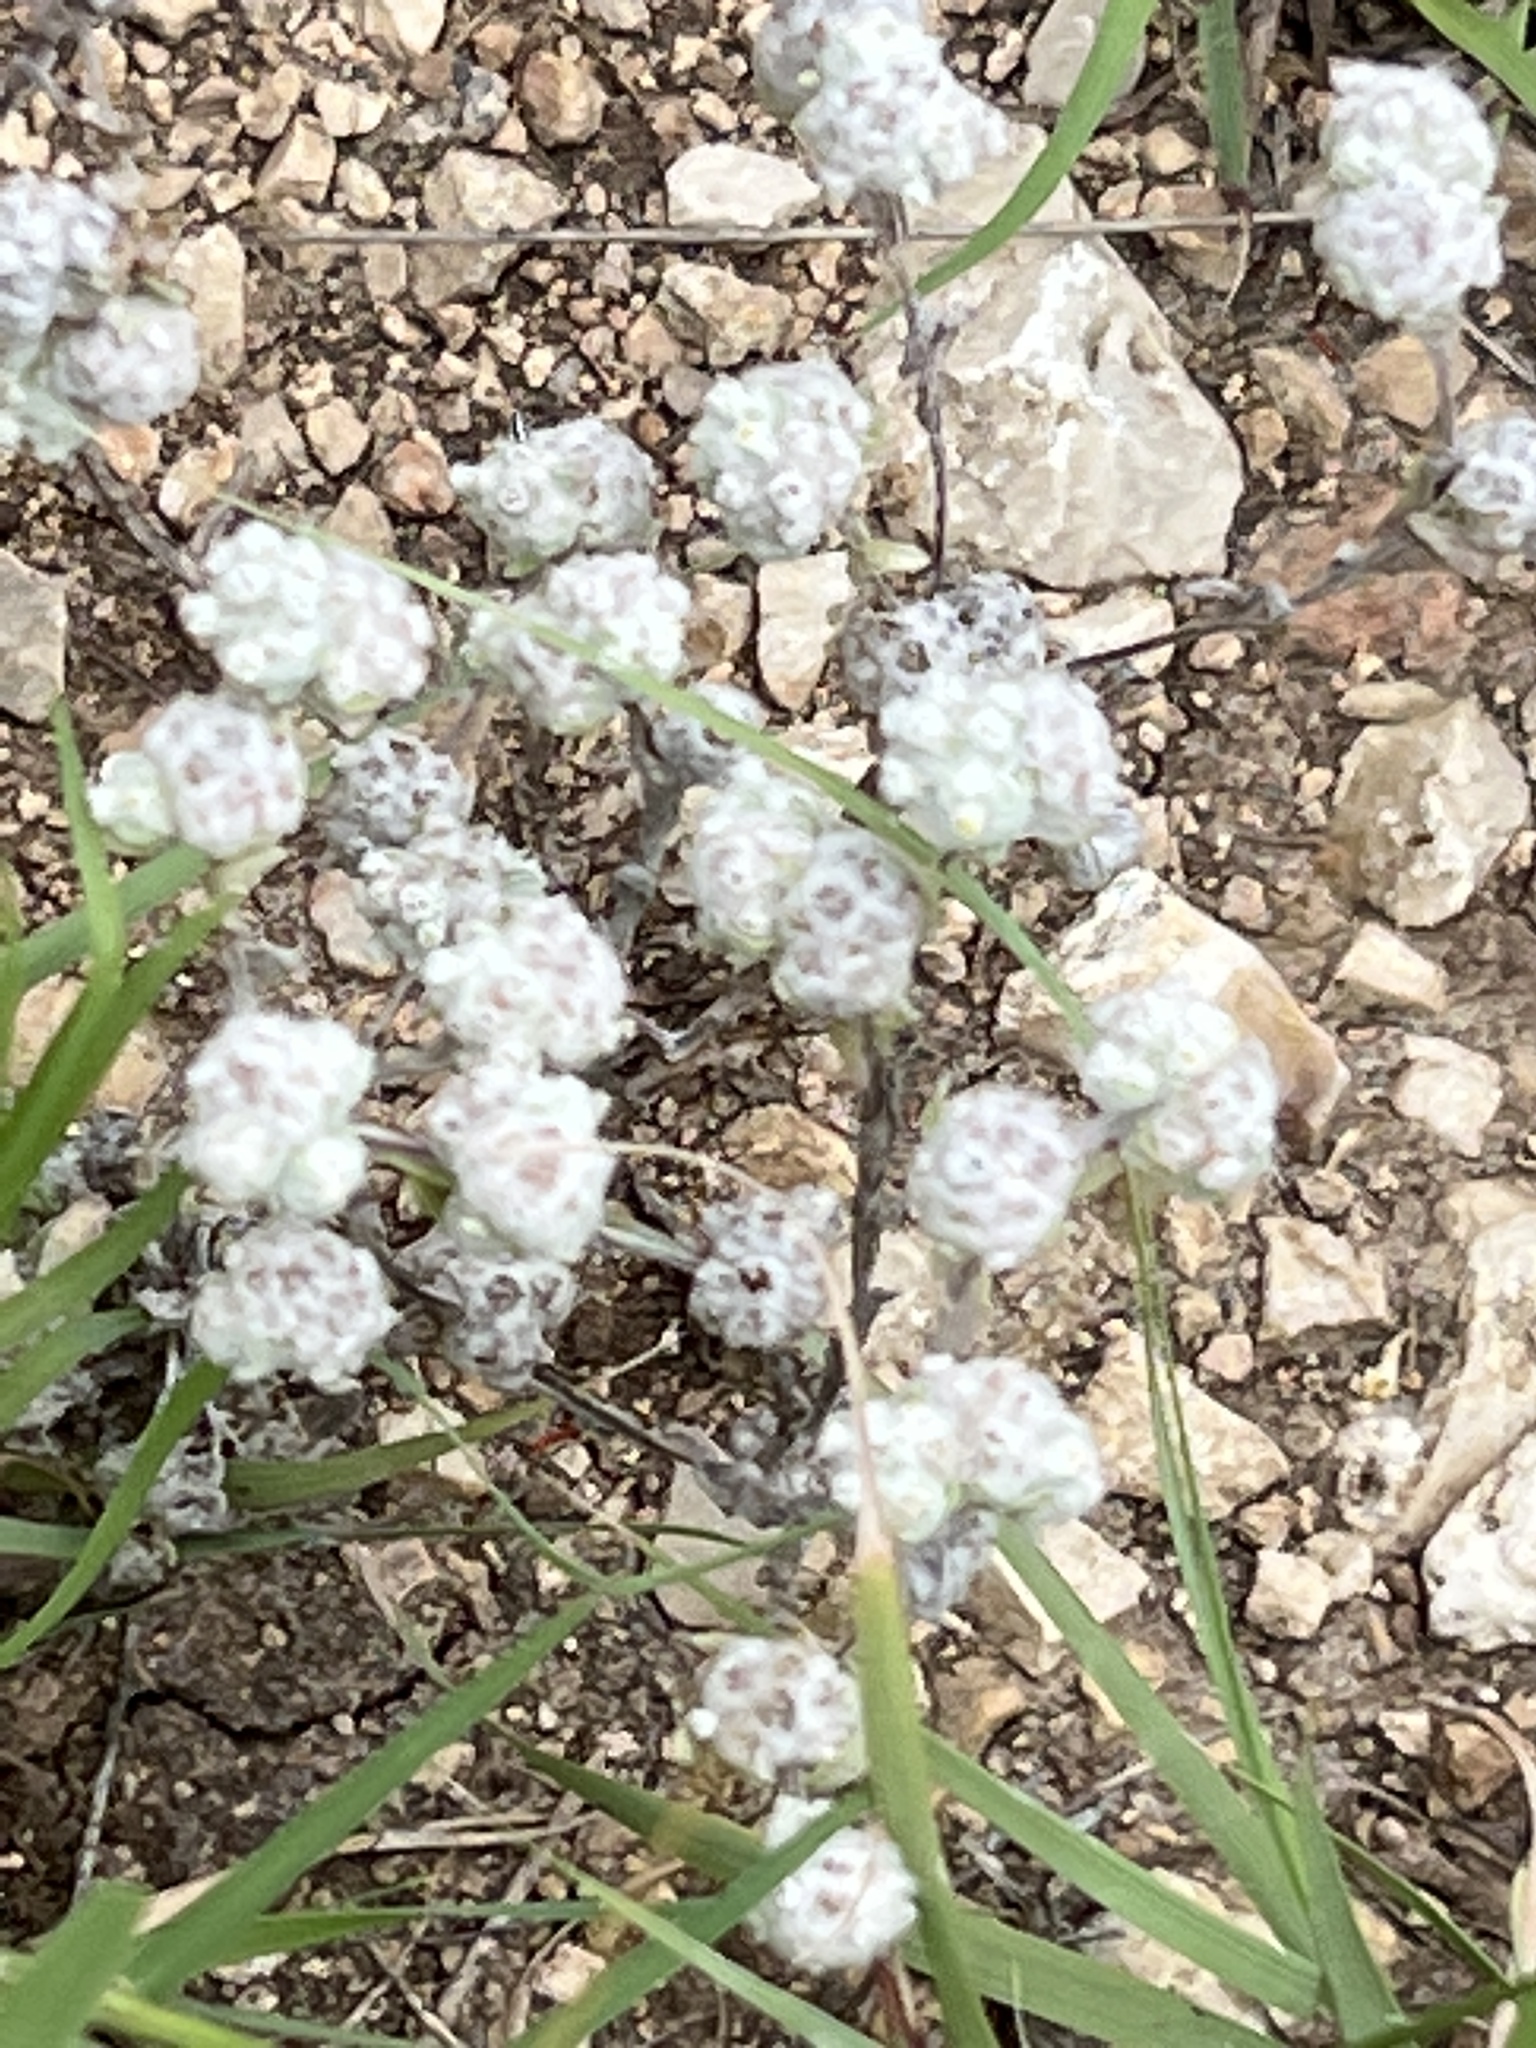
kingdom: Plantae
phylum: Tracheophyta
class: Magnoliopsida
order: Asterales
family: Asteraceae
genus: Diaperia
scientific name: Diaperia verna
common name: Many-stem rabbit-tobacco
